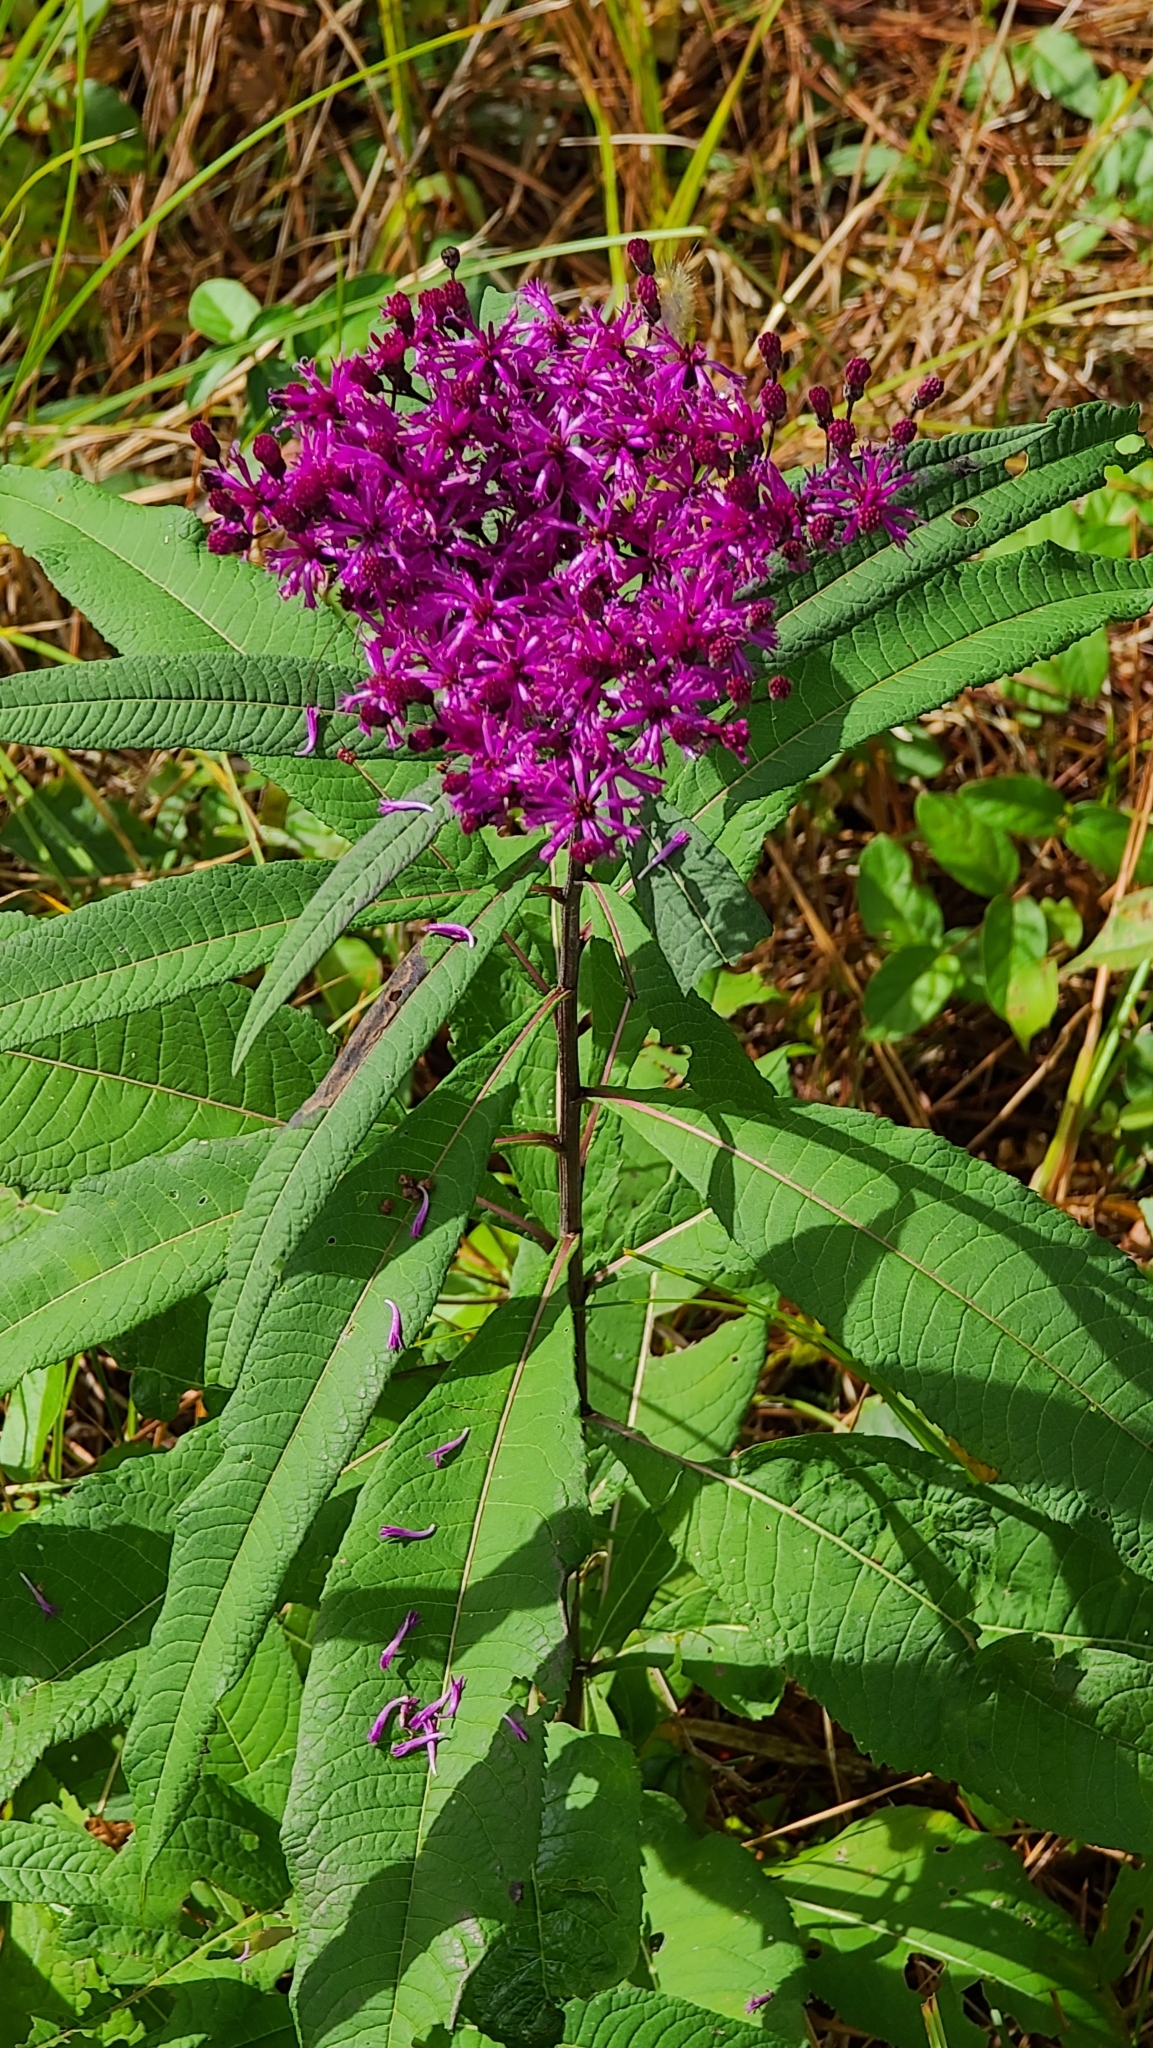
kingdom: Plantae
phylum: Tracheophyta
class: Magnoliopsida
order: Asterales
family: Asteraceae
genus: Vernonia
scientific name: Vernonia gigantea
